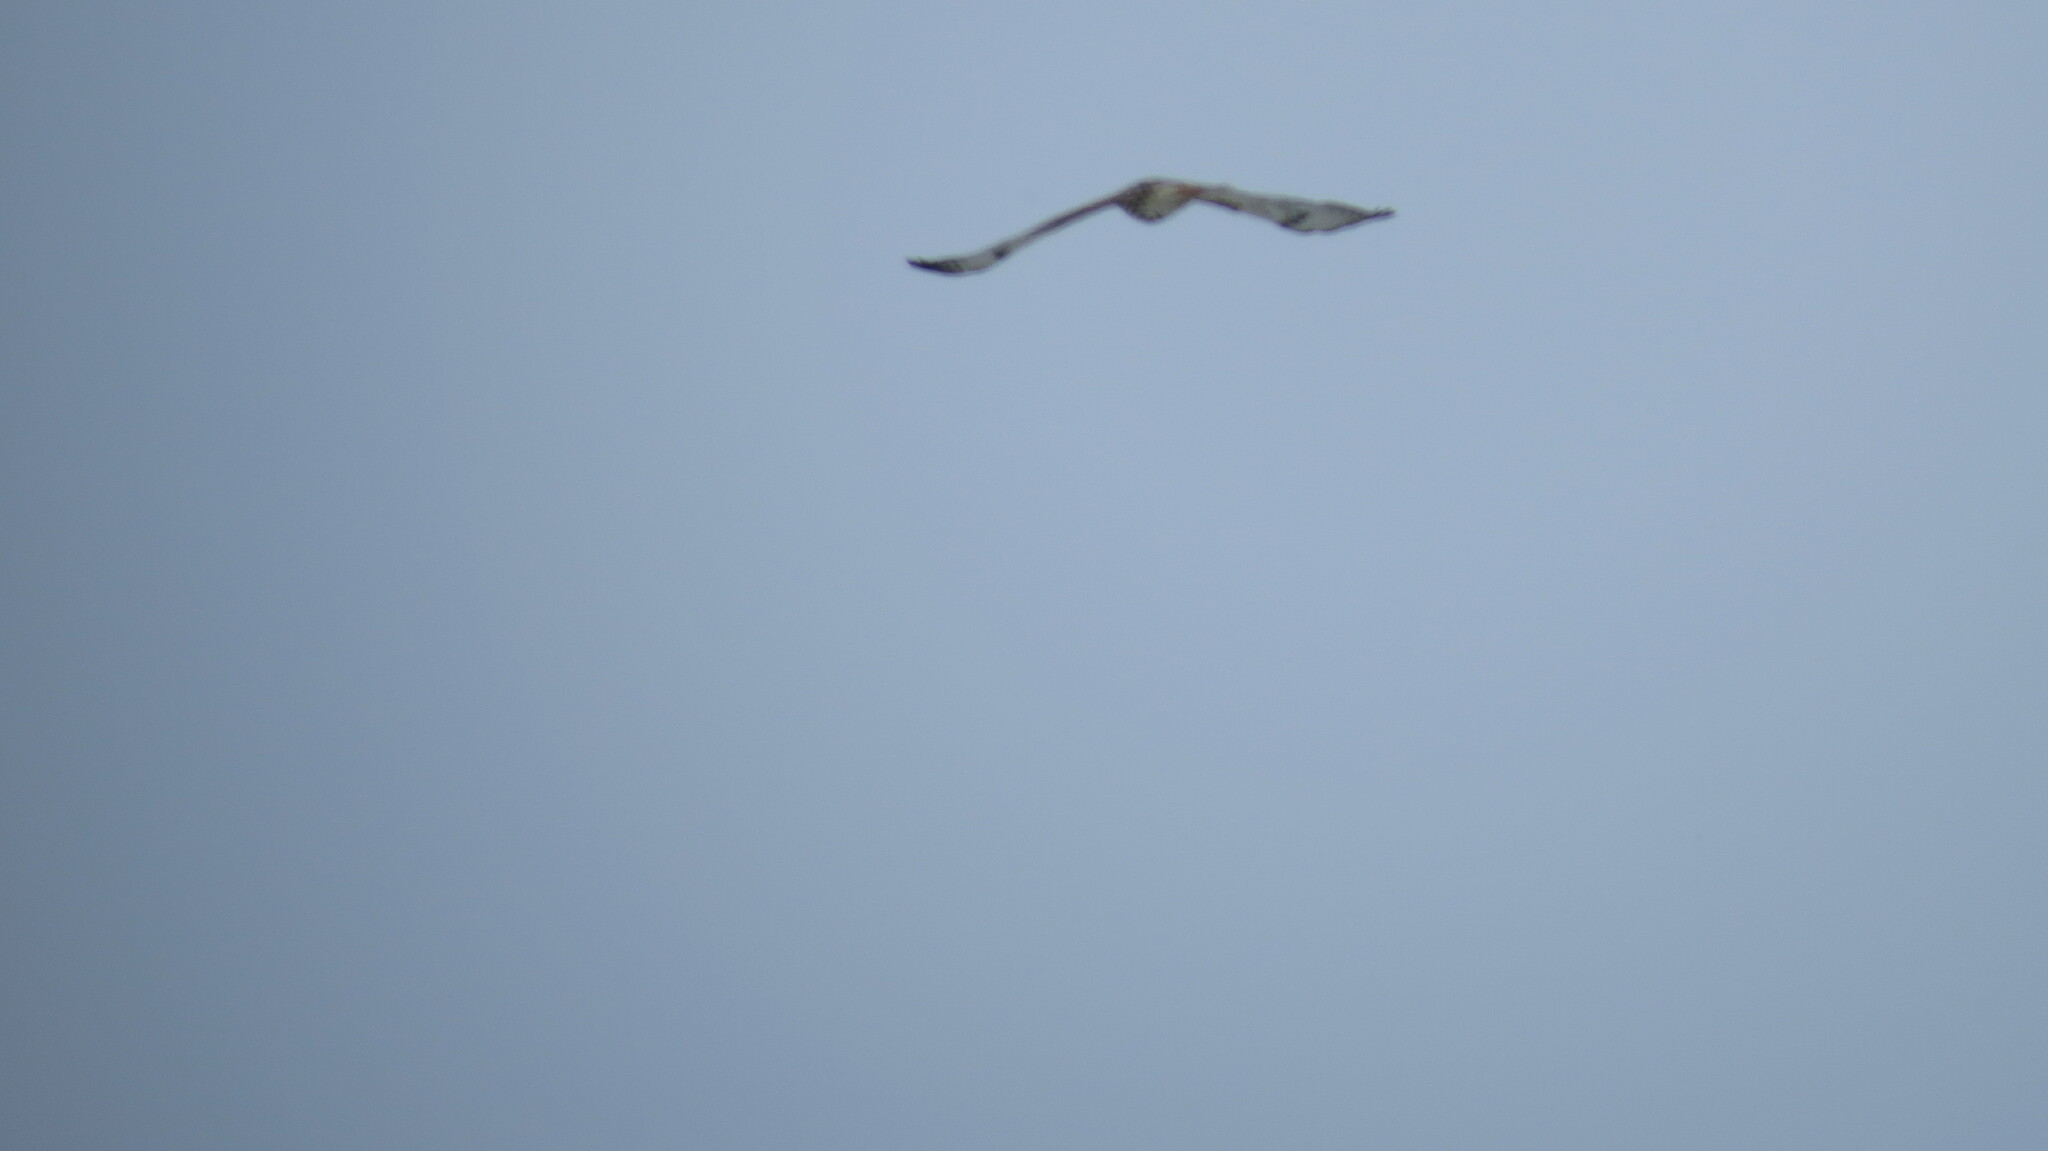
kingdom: Animalia
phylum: Chordata
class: Aves
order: Accipitriformes
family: Accipitridae
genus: Buteo
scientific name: Buteo jamaicensis
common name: Red-tailed hawk
